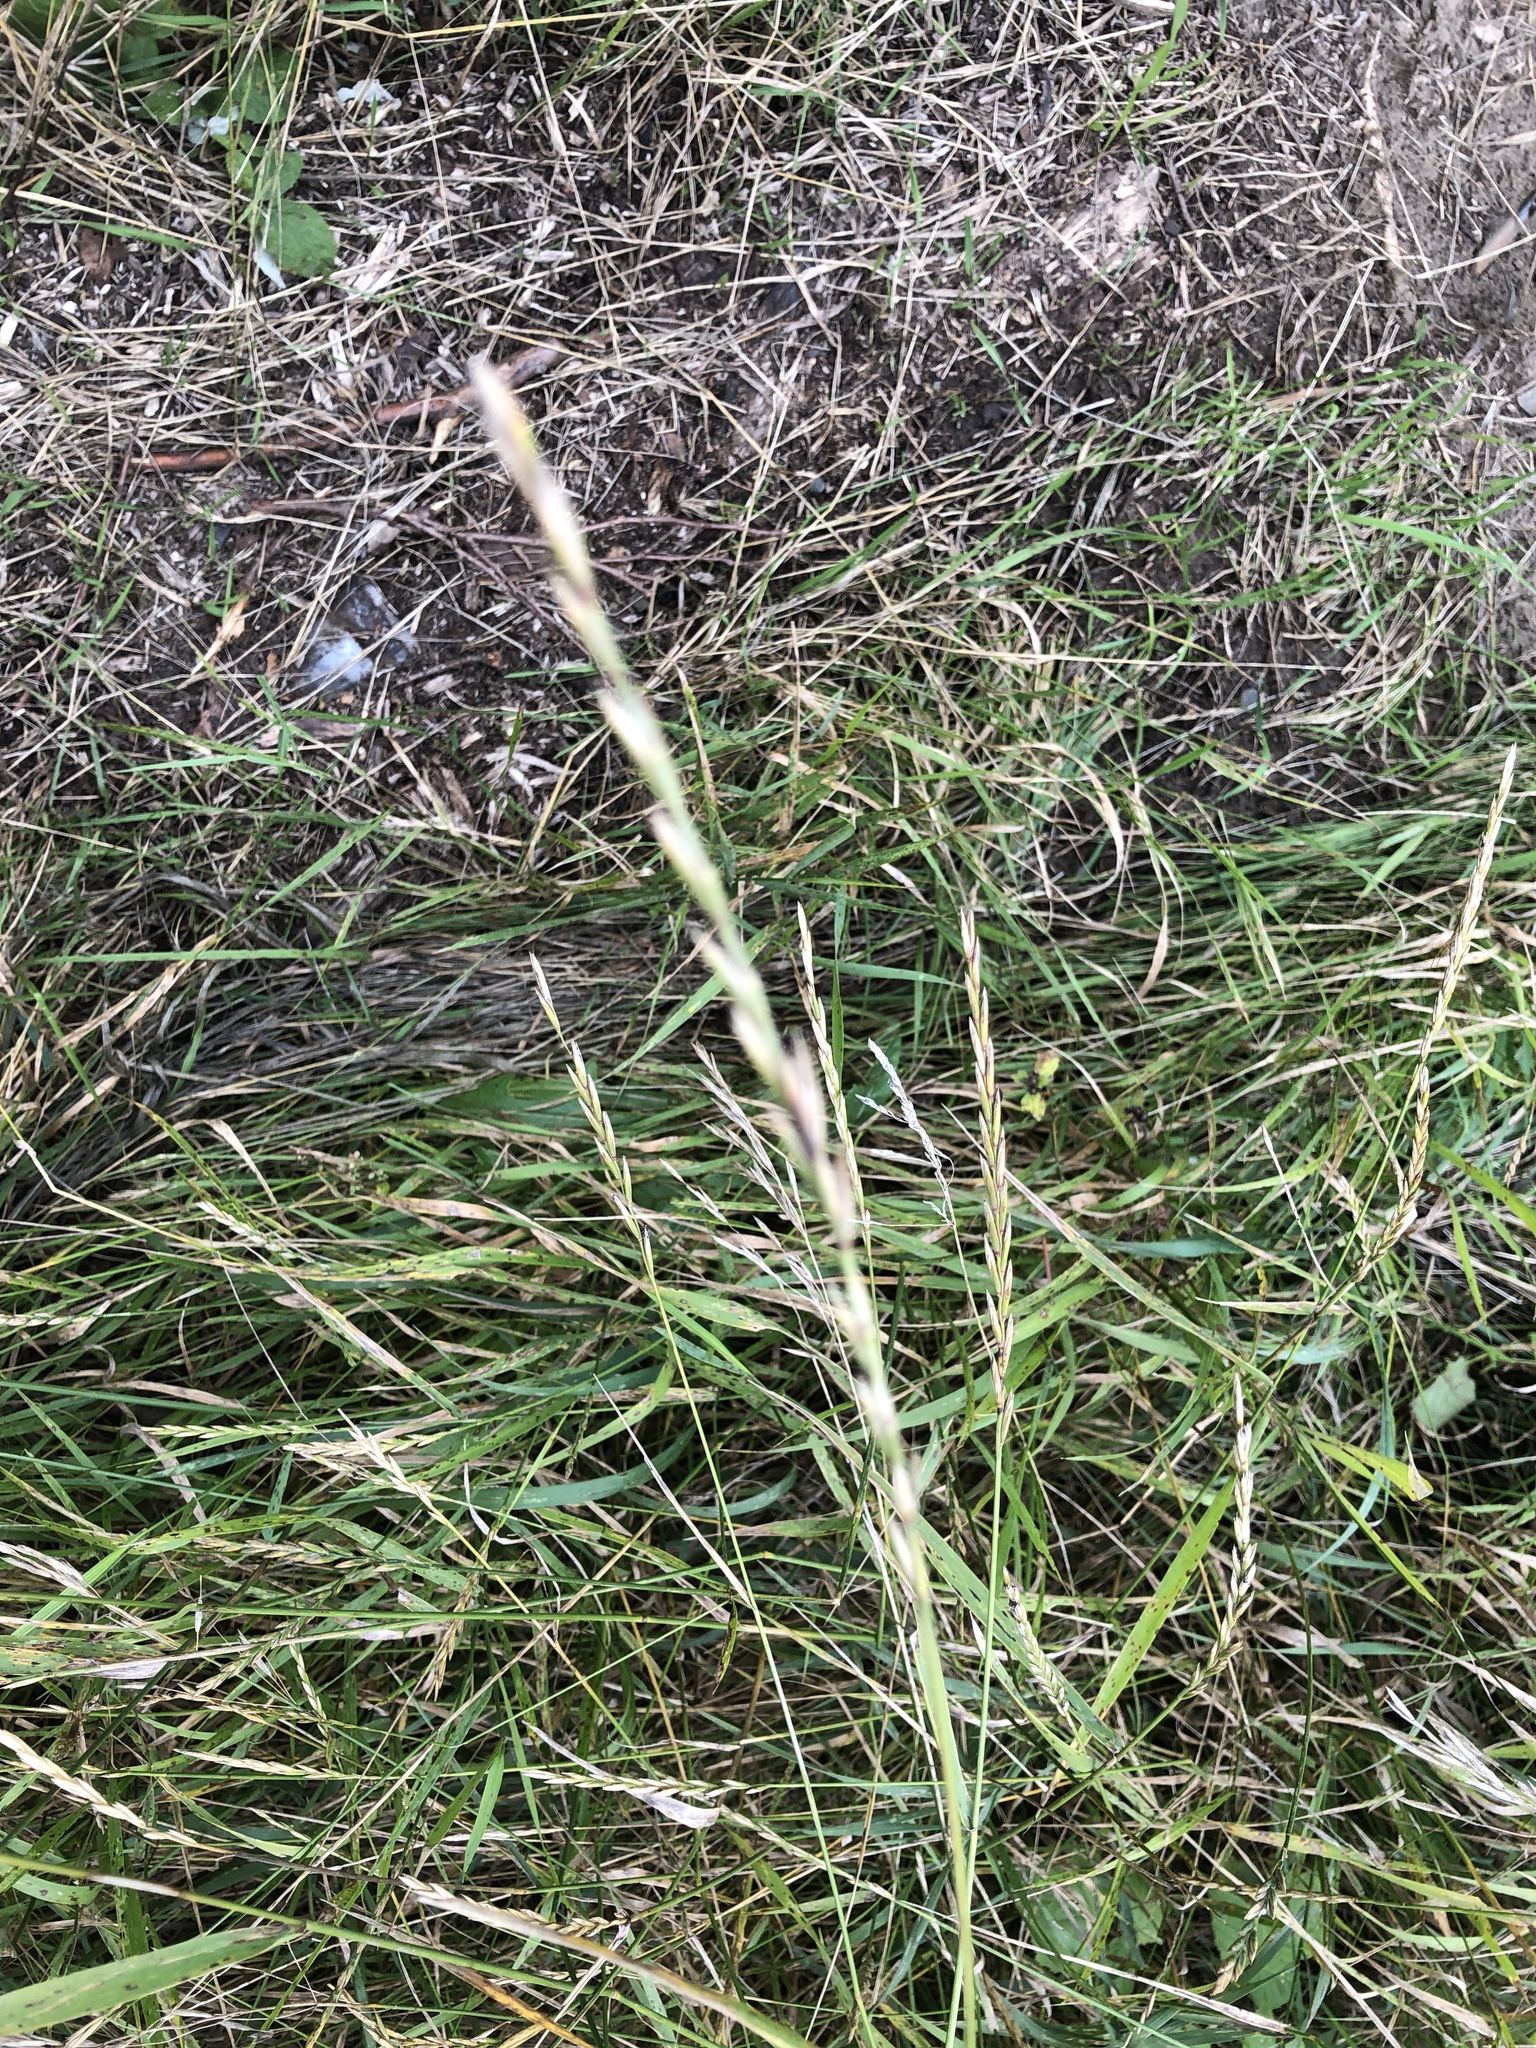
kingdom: Plantae
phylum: Tracheophyta
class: Liliopsida
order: Poales
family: Poaceae
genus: Elymus
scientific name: Elymus repens
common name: Quackgrass
